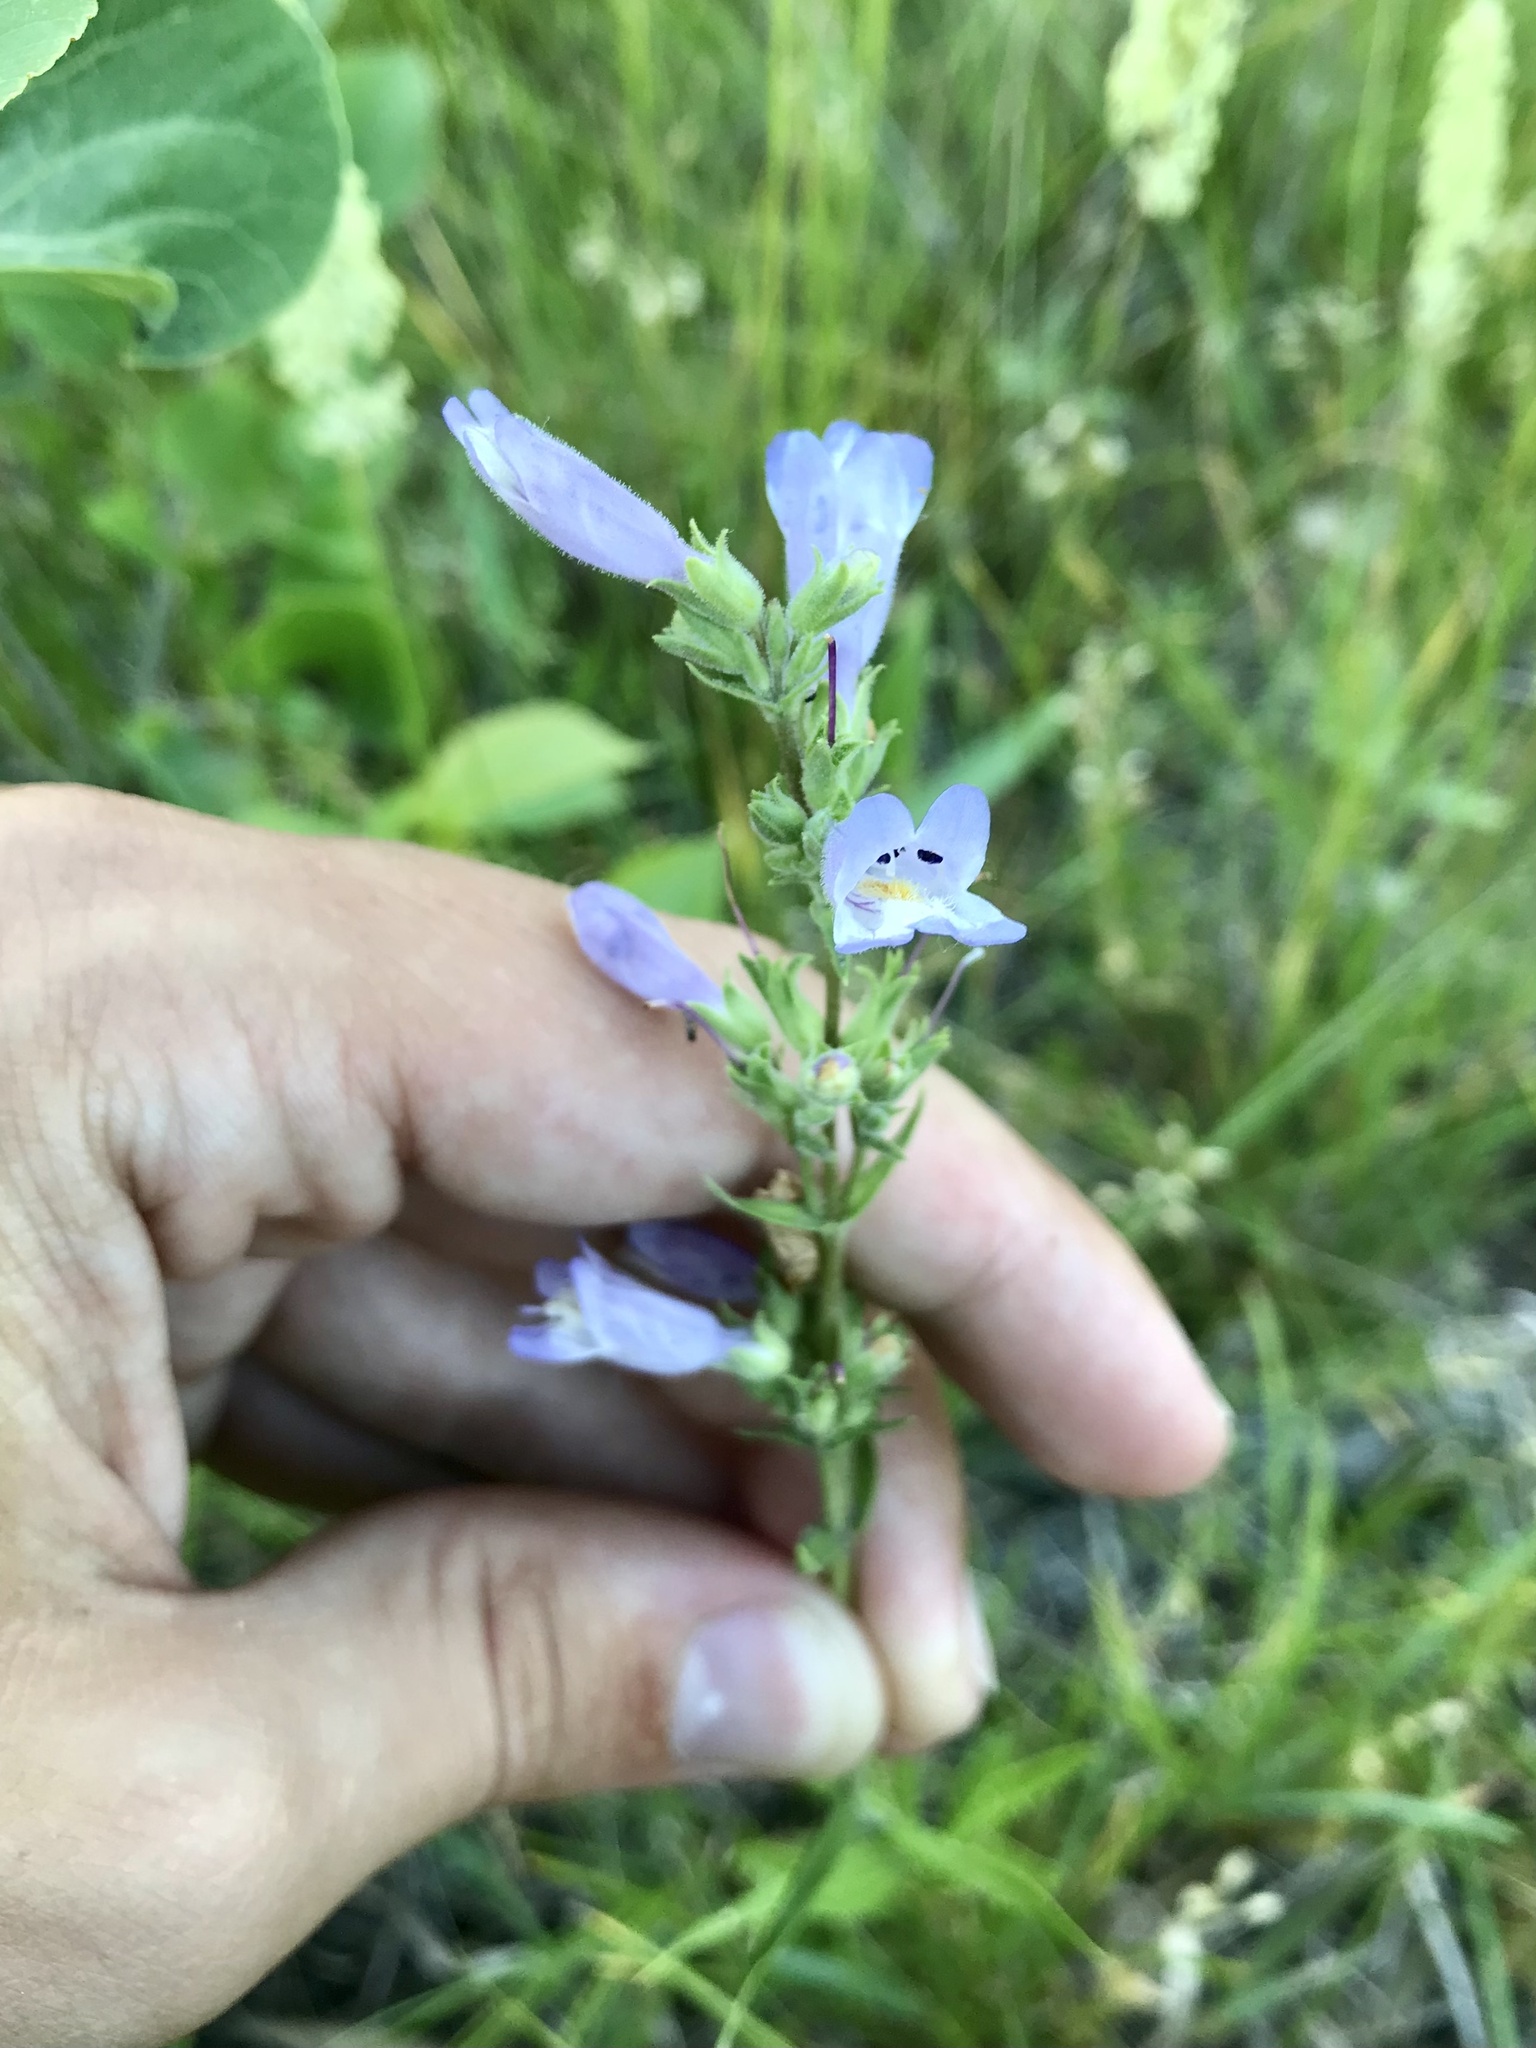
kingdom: Plantae
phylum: Tracheophyta
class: Magnoliopsida
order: Lamiales
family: Plantaginaceae
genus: Penstemon
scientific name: Penstemon gracilis
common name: Slender beardtongue
